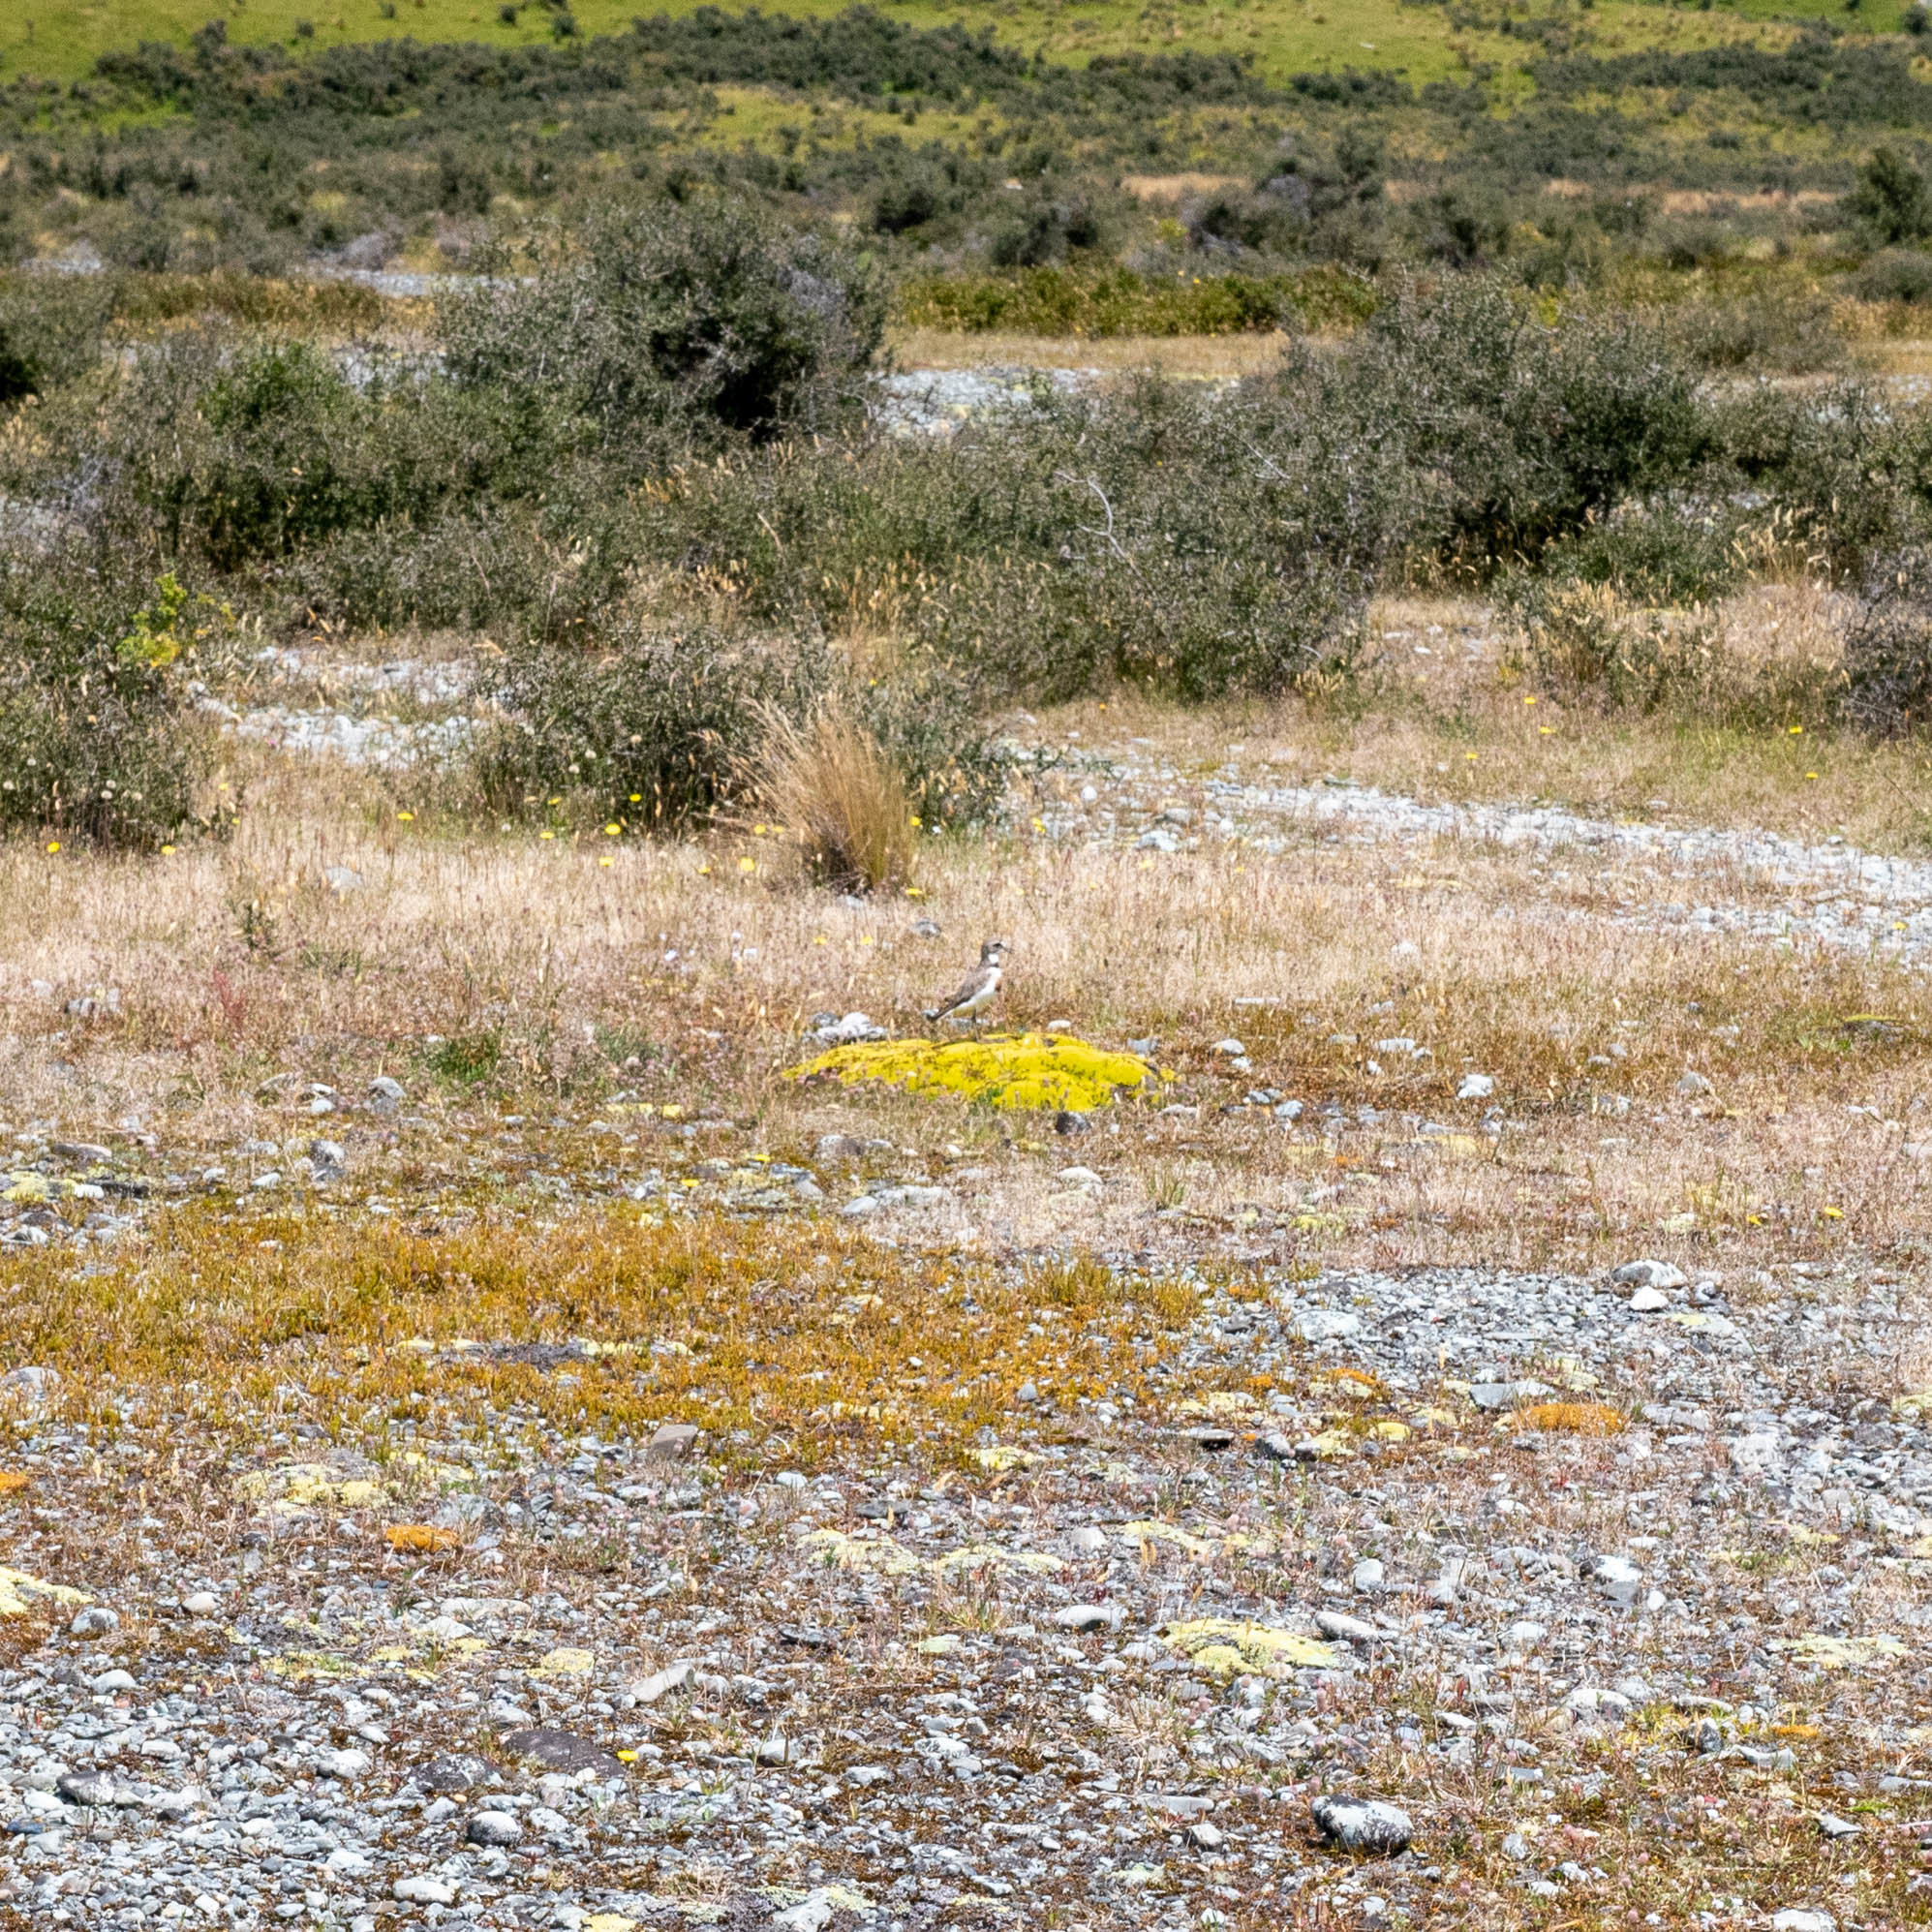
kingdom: Animalia
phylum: Chordata
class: Aves
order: Charadriiformes
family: Charadriidae
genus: Anarhynchus
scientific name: Anarhynchus
